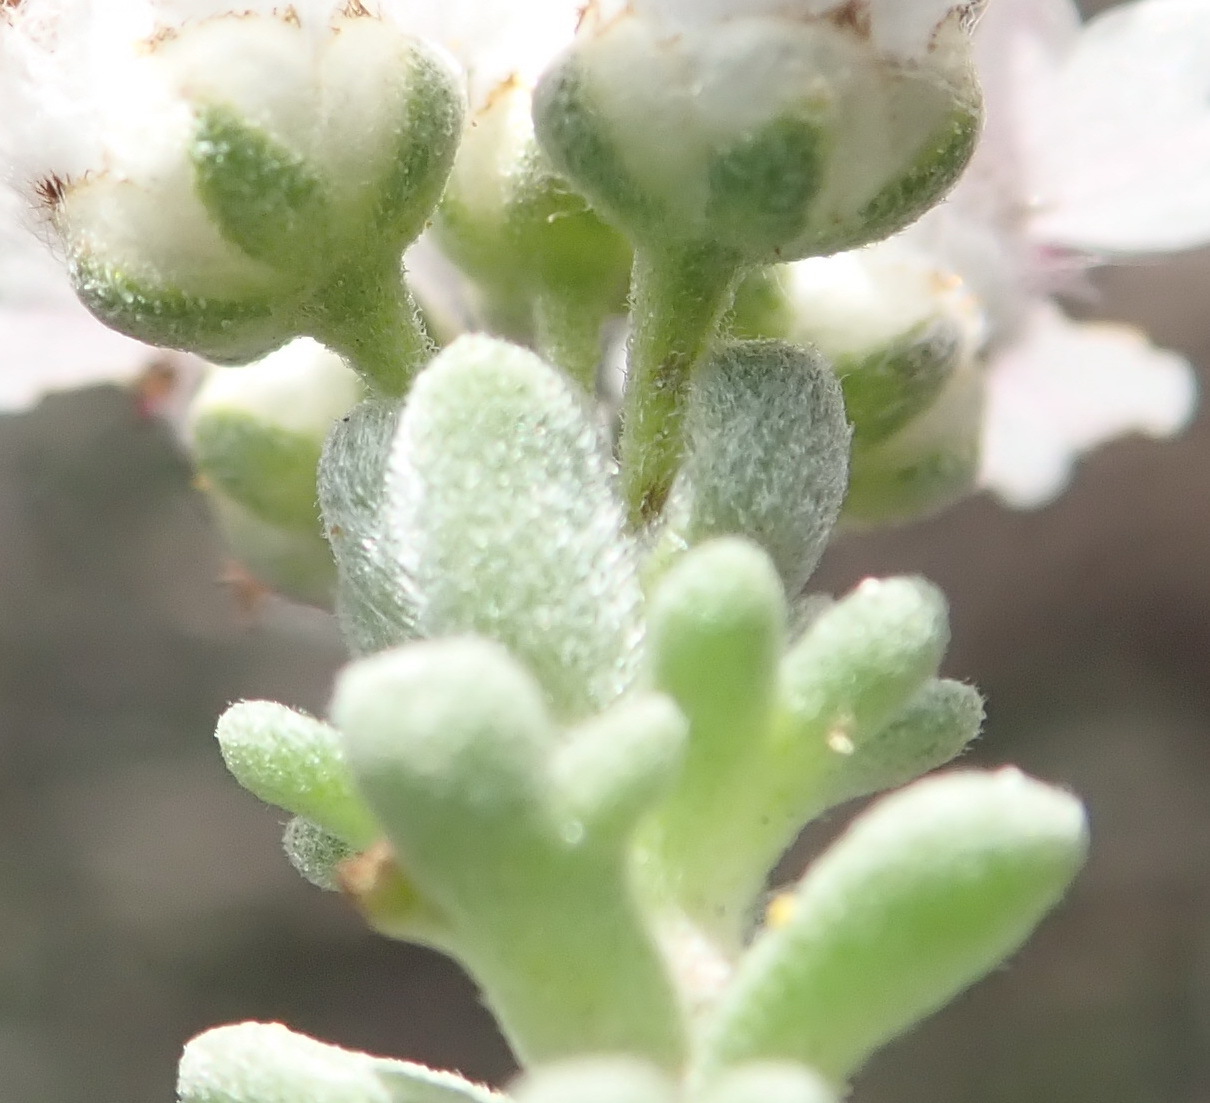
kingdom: Plantae
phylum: Tracheophyta
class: Magnoliopsida
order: Asterales
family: Asteraceae
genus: Eriocephalus
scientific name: Eriocephalus africanus
